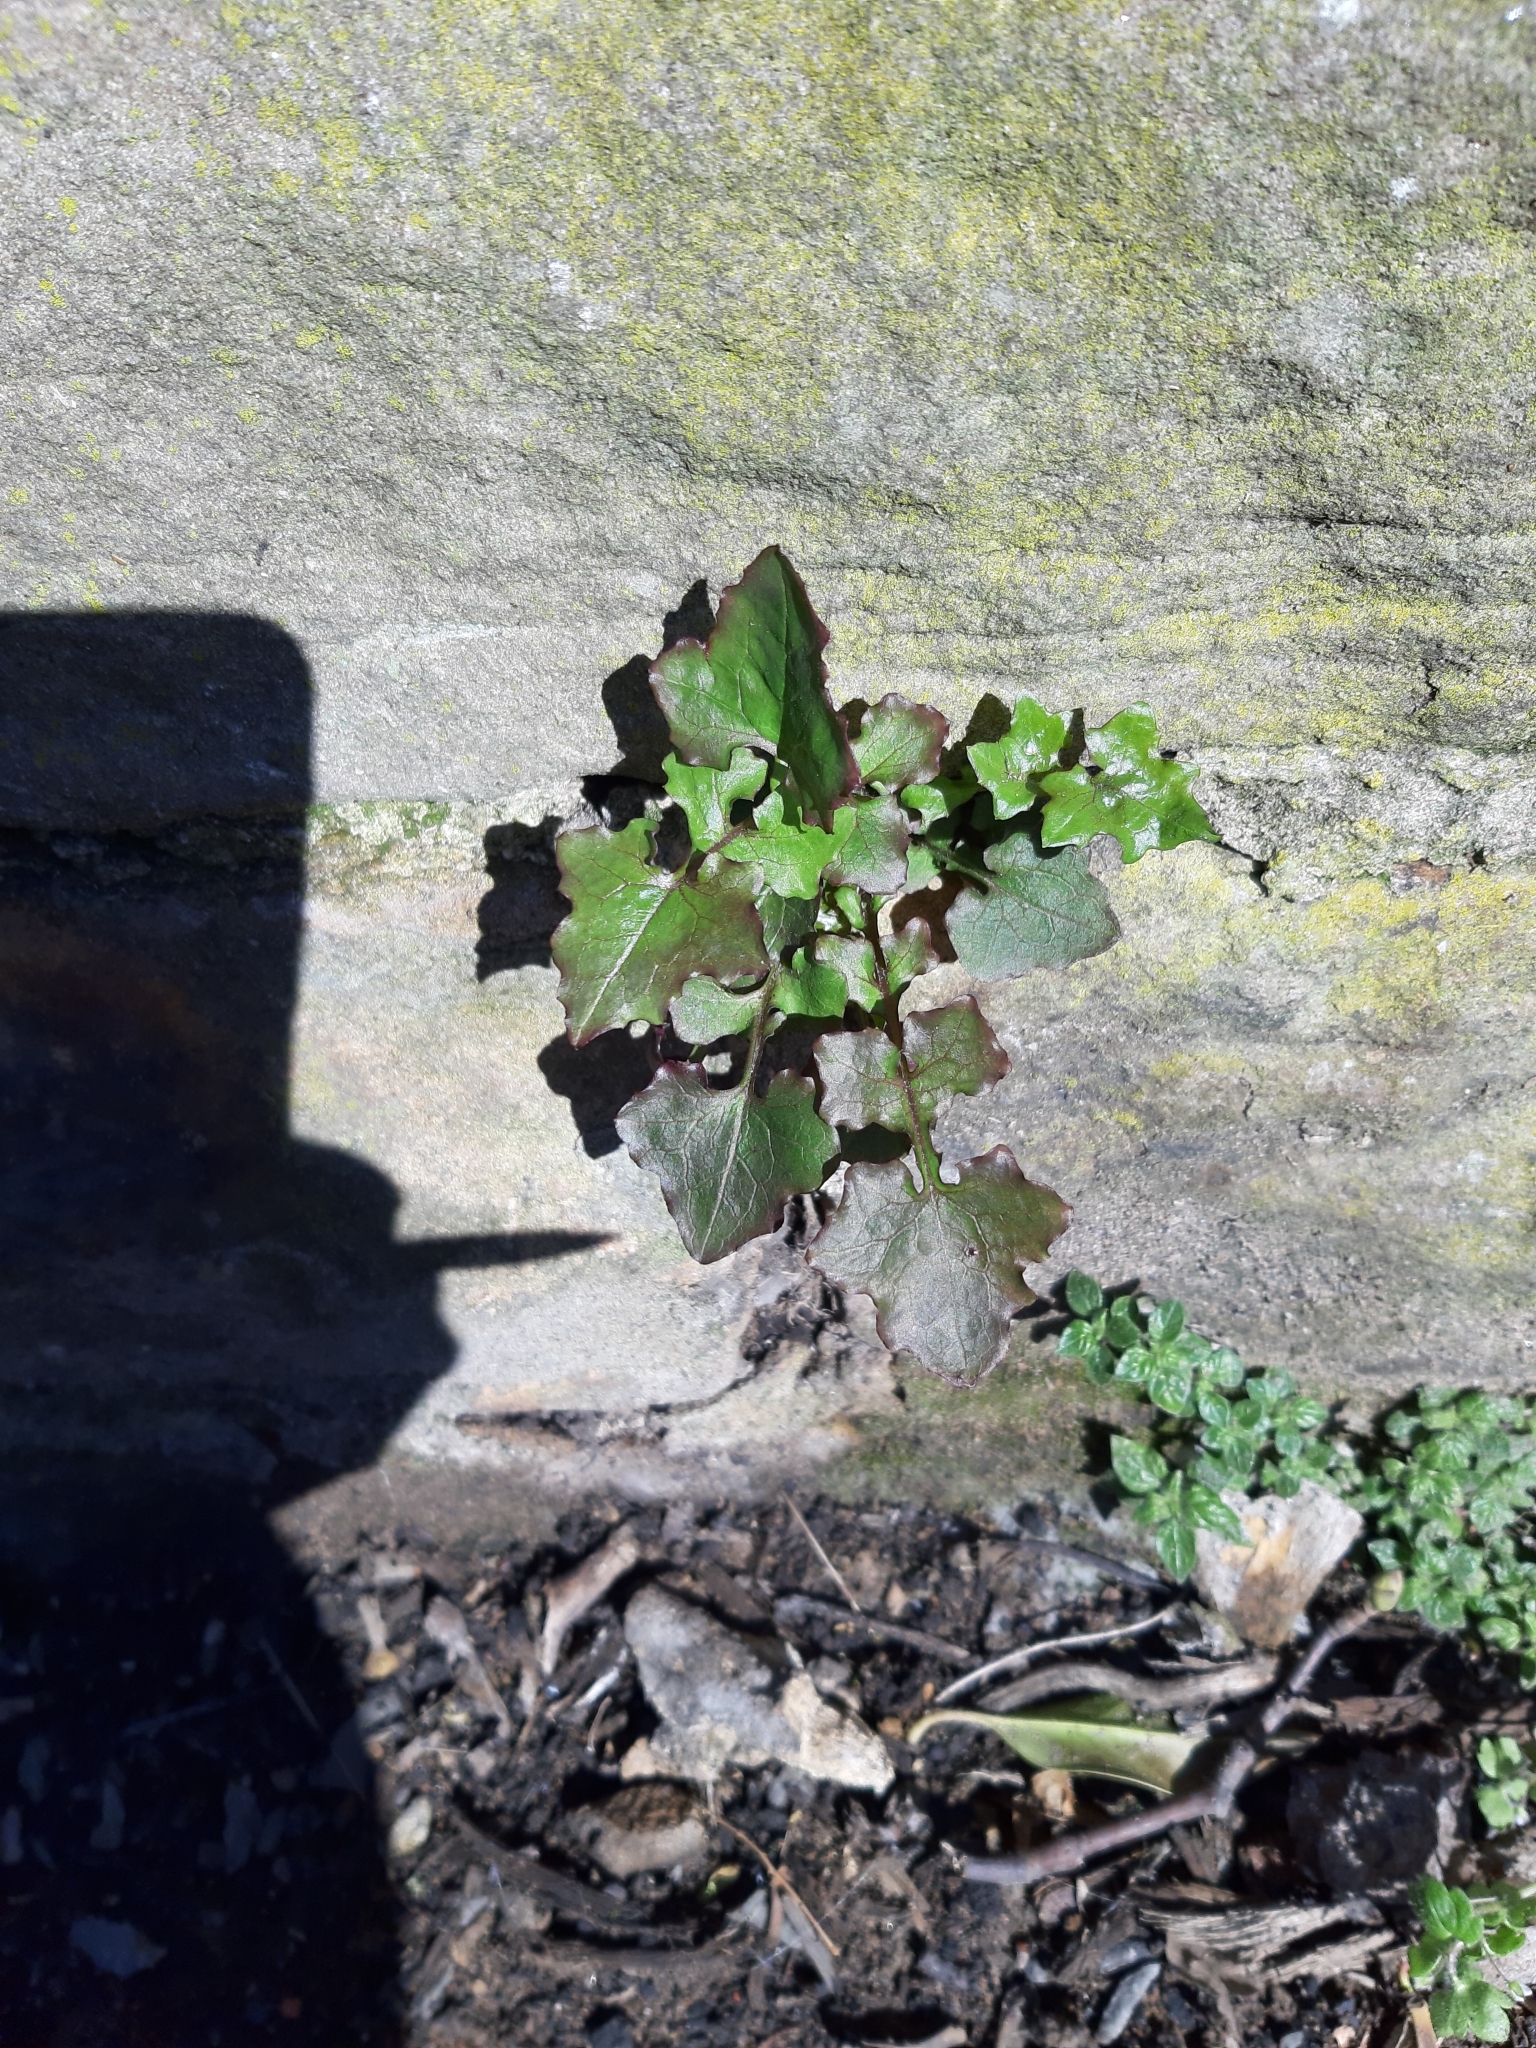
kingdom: Plantae
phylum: Tracheophyta
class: Magnoliopsida
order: Asterales
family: Asteraceae
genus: Mycelis
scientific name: Mycelis muralis
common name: Wall lettuce
